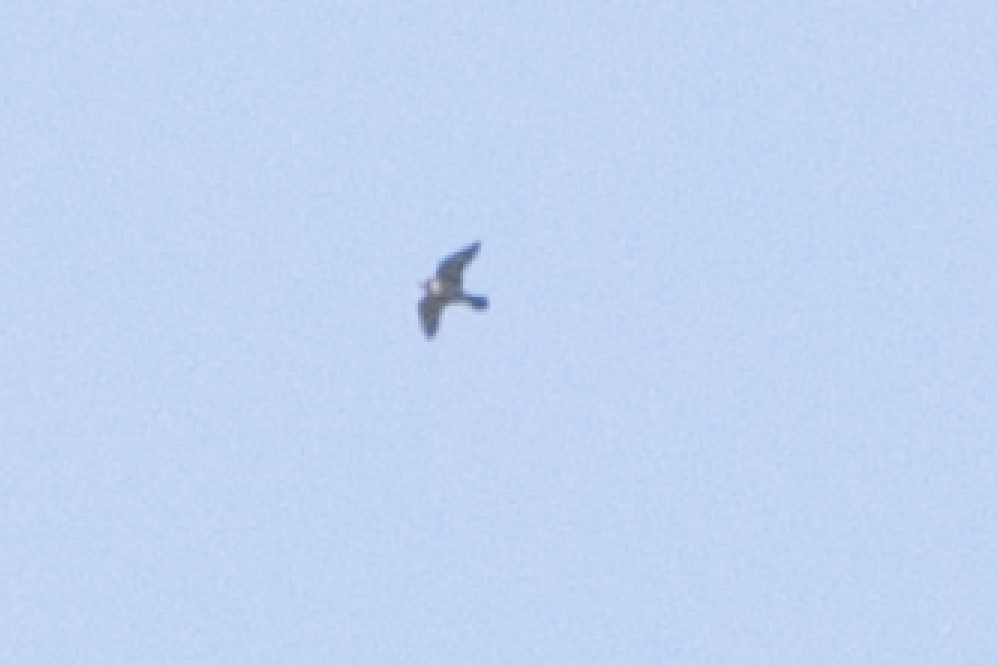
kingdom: Animalia
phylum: Chordata
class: Aves
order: Falconiformes
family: Falconidae
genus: Falco
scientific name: Falco peregrinus
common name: Peregrine falcon
